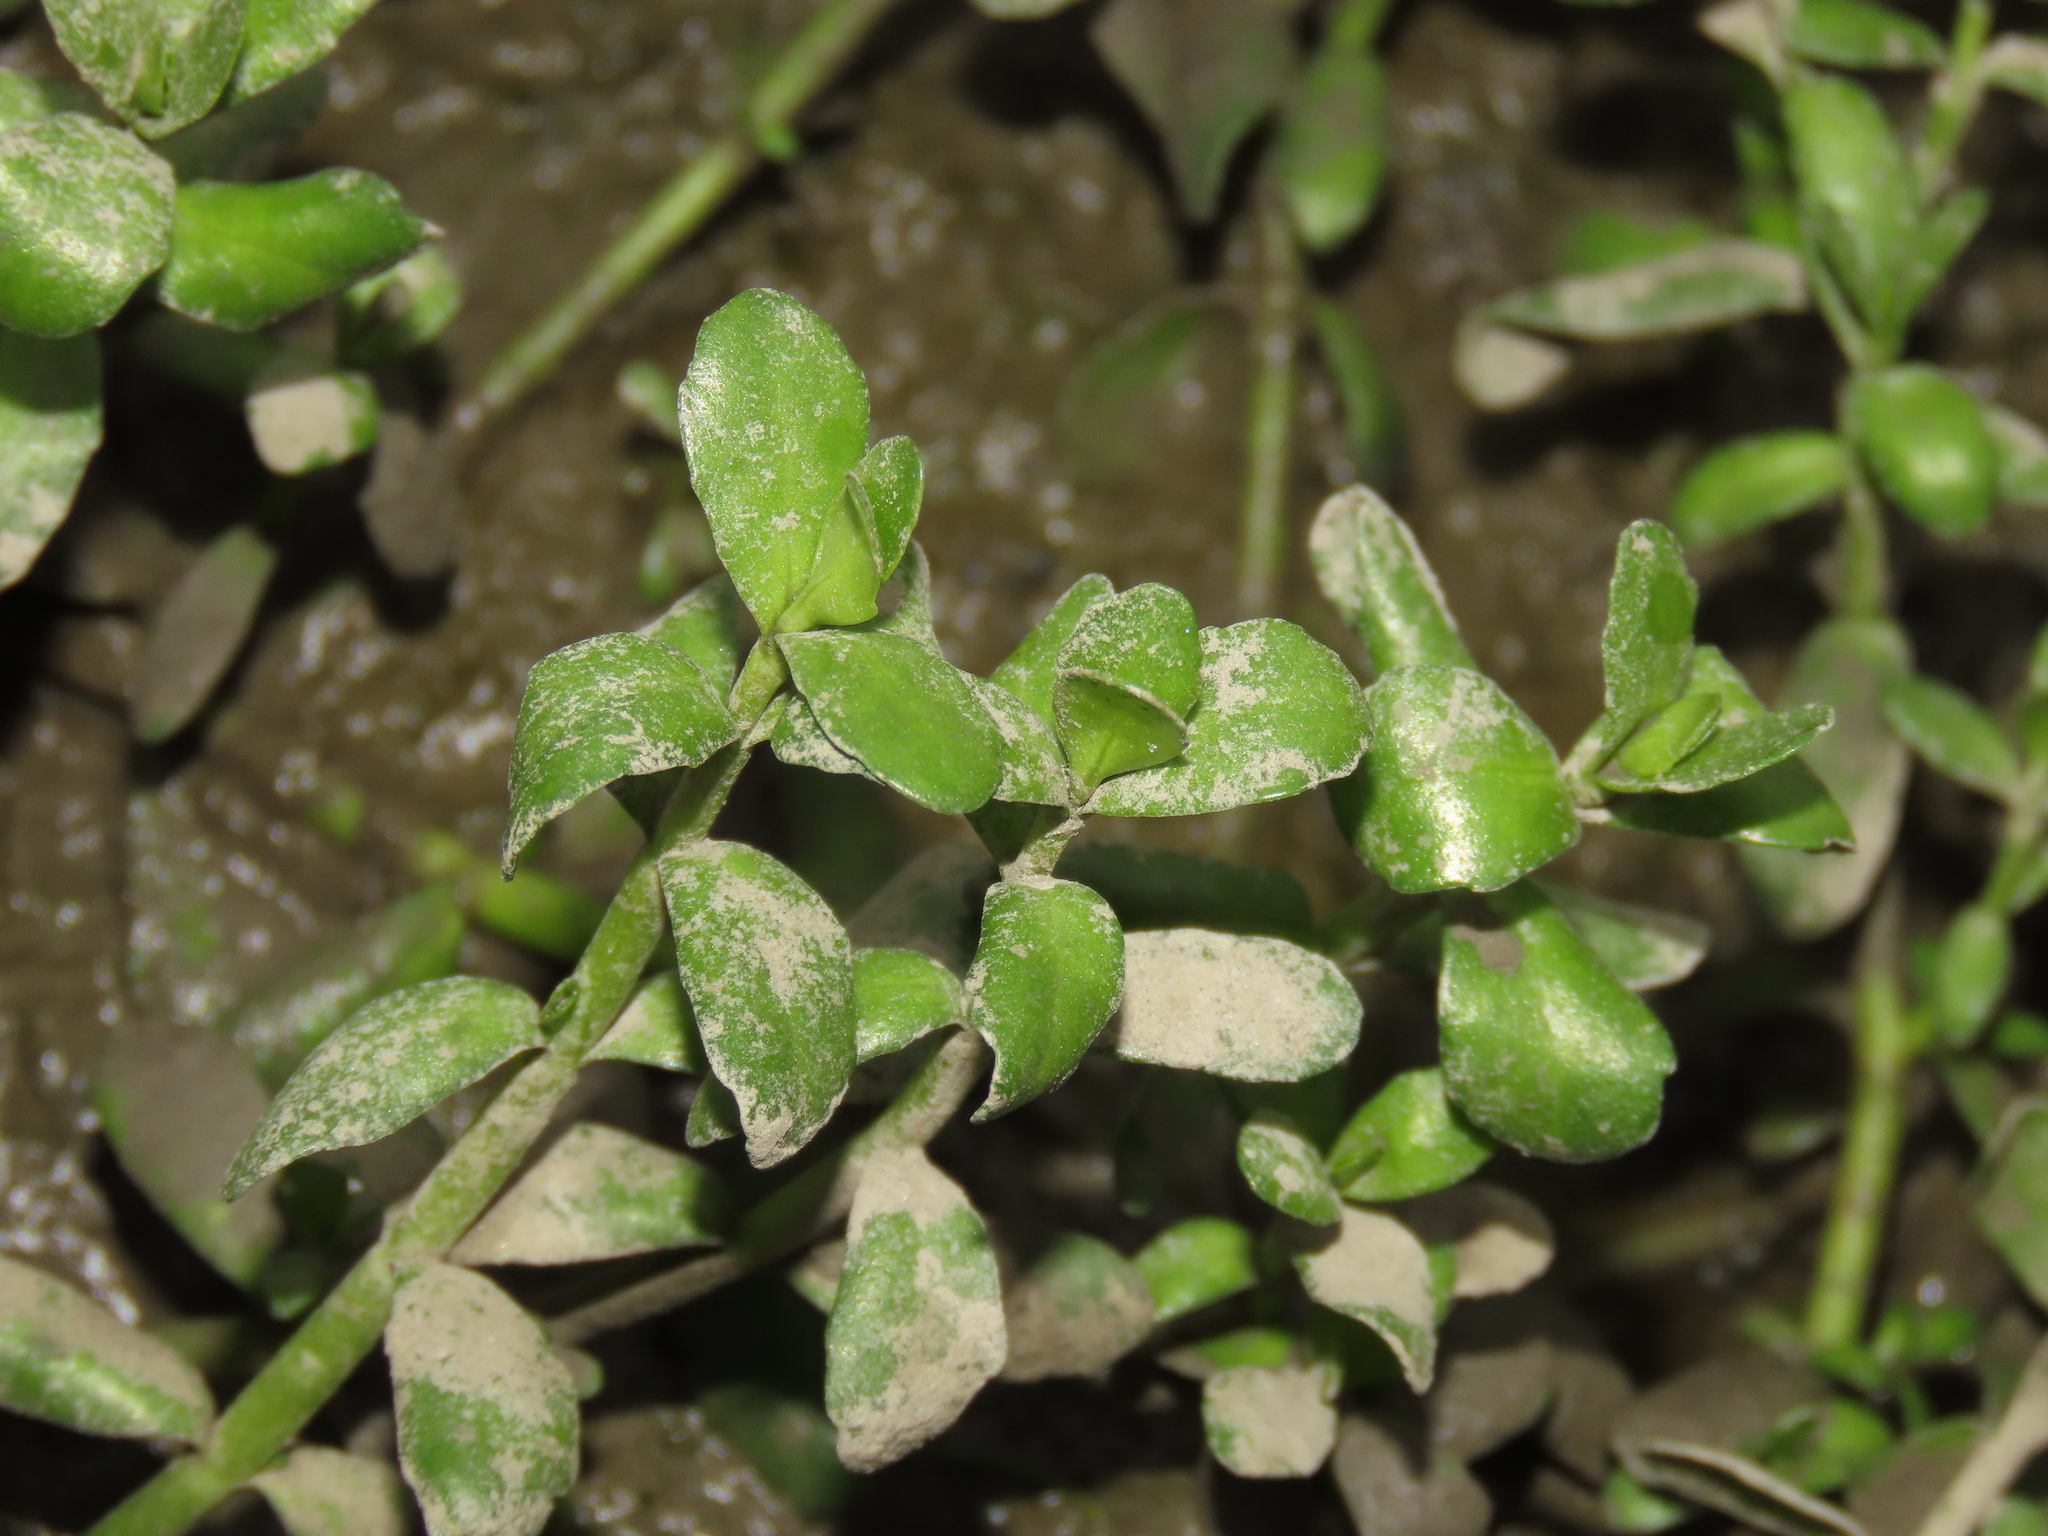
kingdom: Plantae
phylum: Tracheophyta
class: Magnoliopsida
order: Lamiales
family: Plantaginaceae
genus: Bacopa
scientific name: Bacopa monnieri
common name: Indian-pennywort
